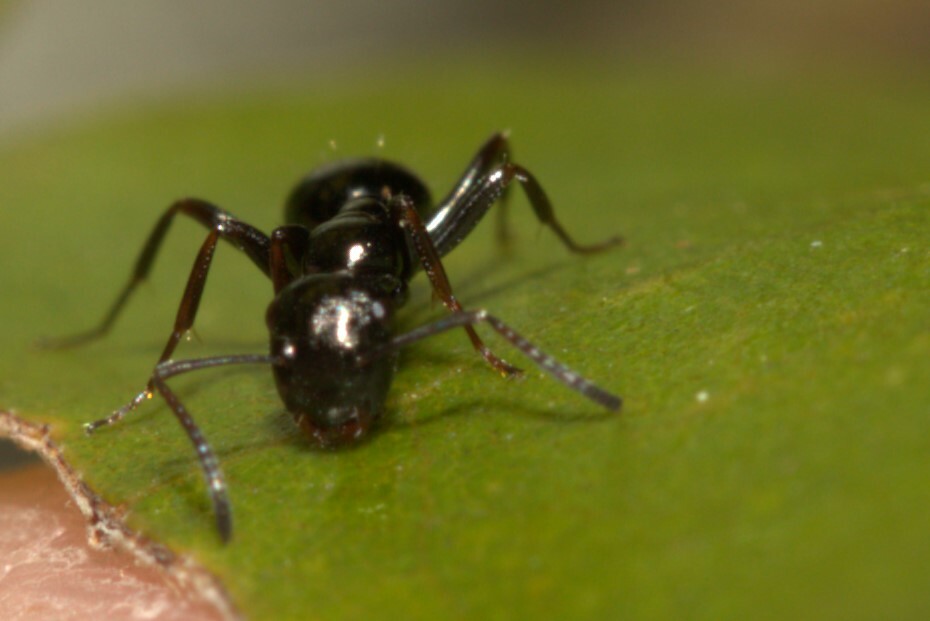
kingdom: Animalia
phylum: Arthropoda
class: Insecta
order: Hymenoptera
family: Formicidae
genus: Colobopsis
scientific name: Colobopsis gasseri
